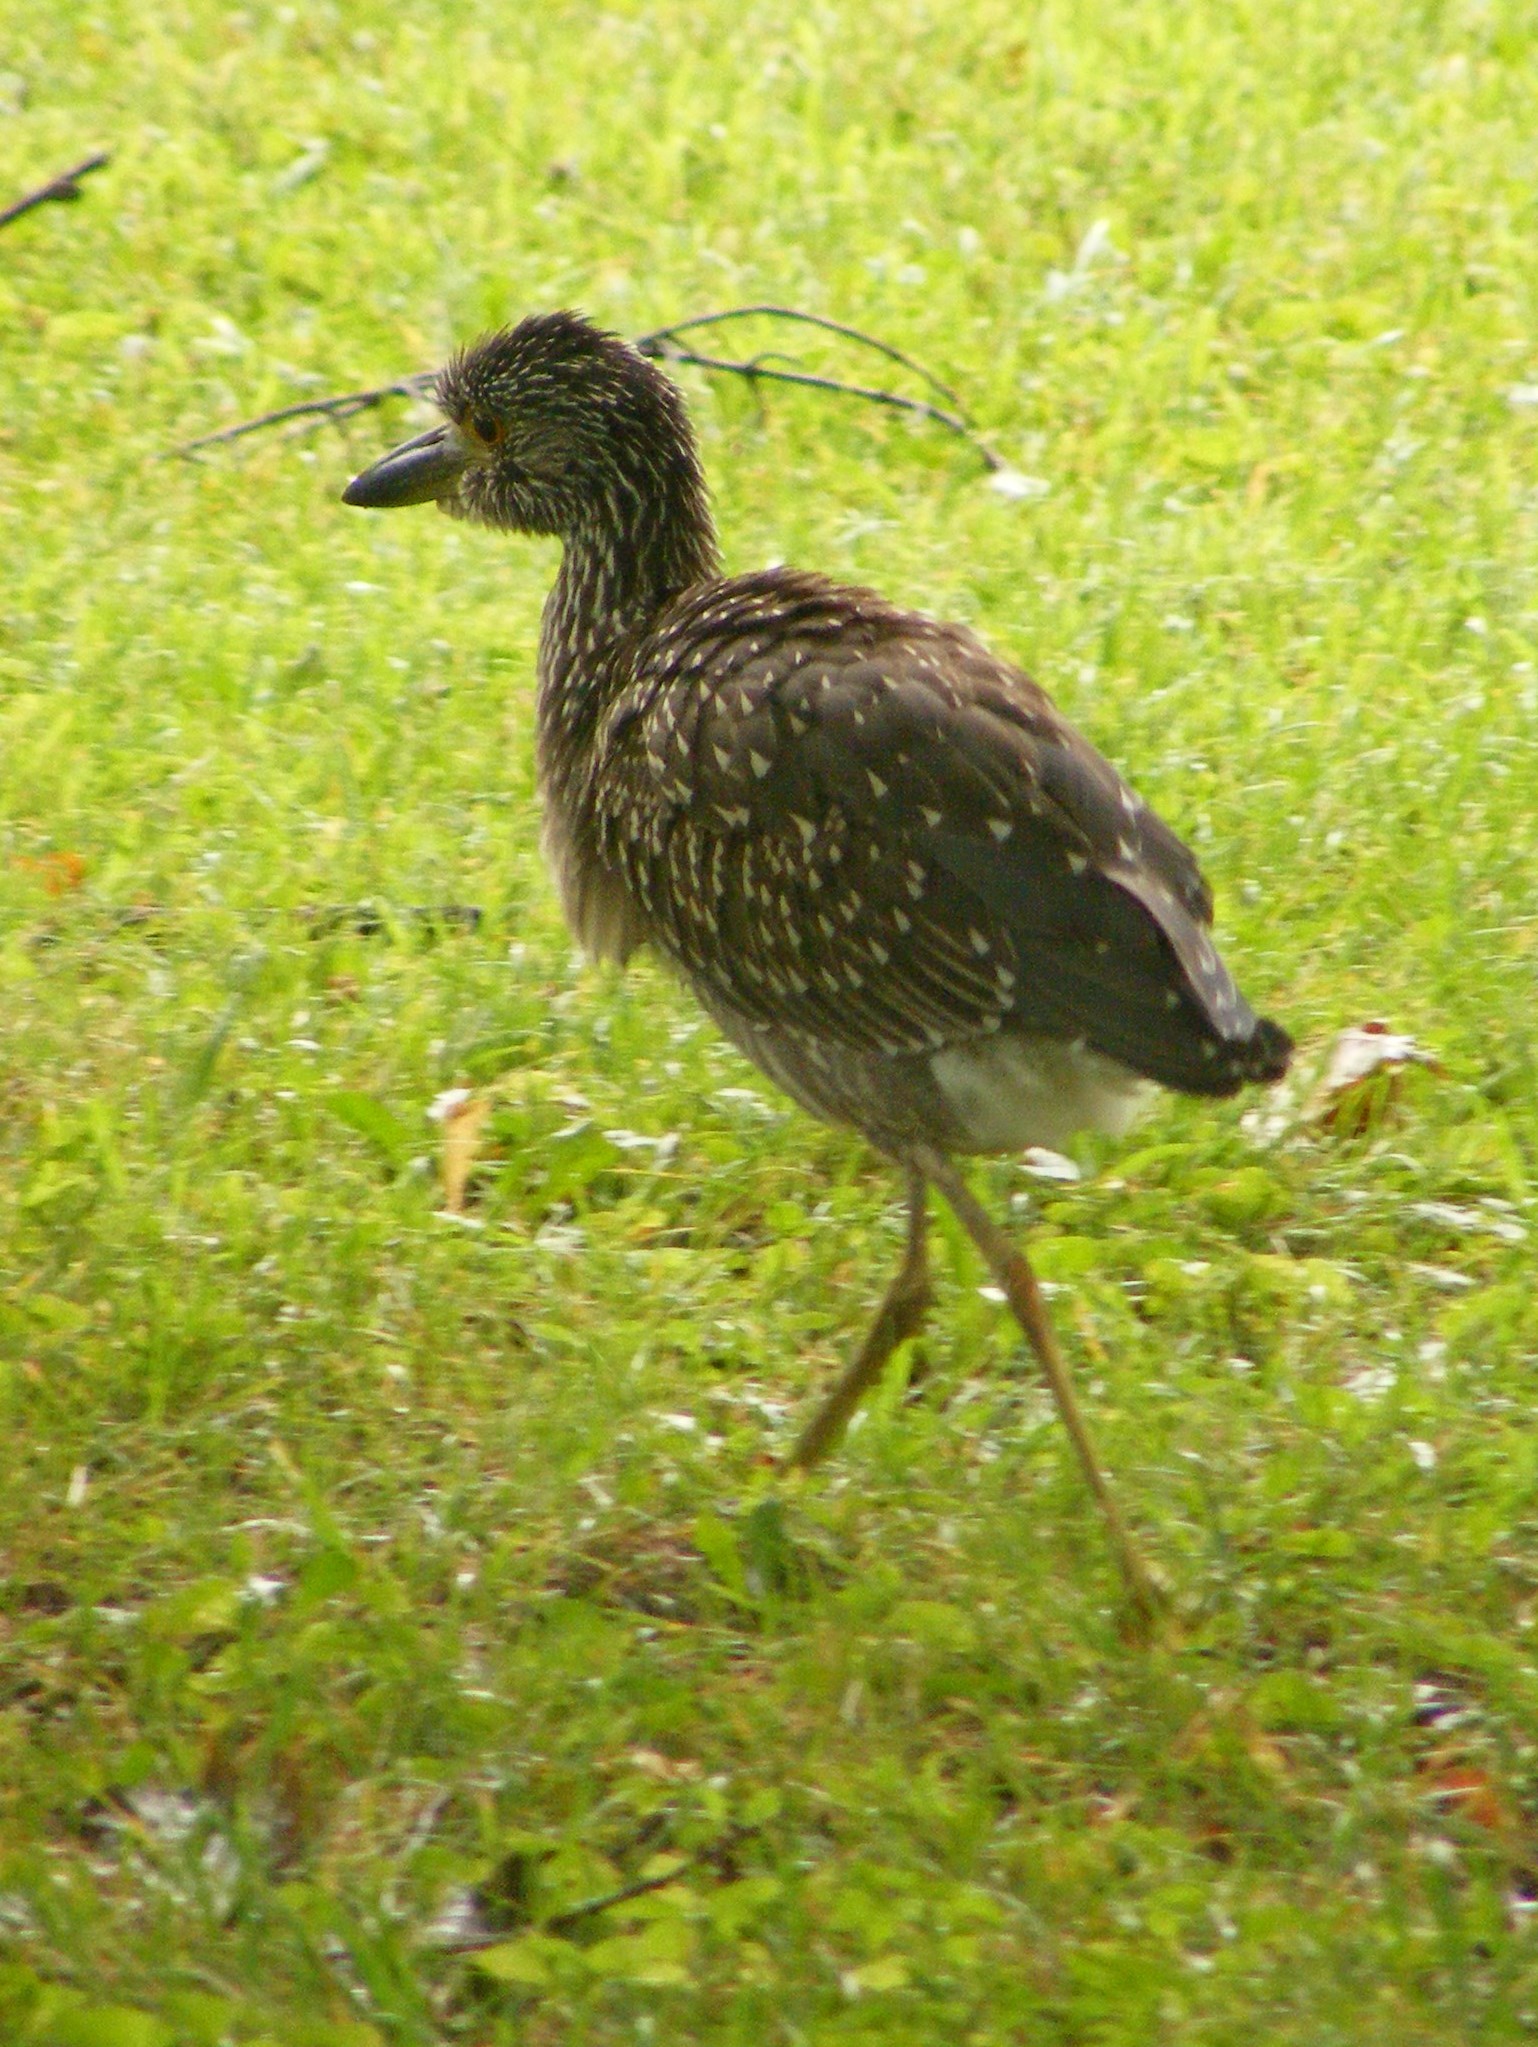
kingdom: Animalia
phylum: Chordata
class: Aves
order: Pelecaniformes
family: Ardeidae
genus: Nyctanassa
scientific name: Nyctanassa violacea
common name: Yellow-crowned night heron
